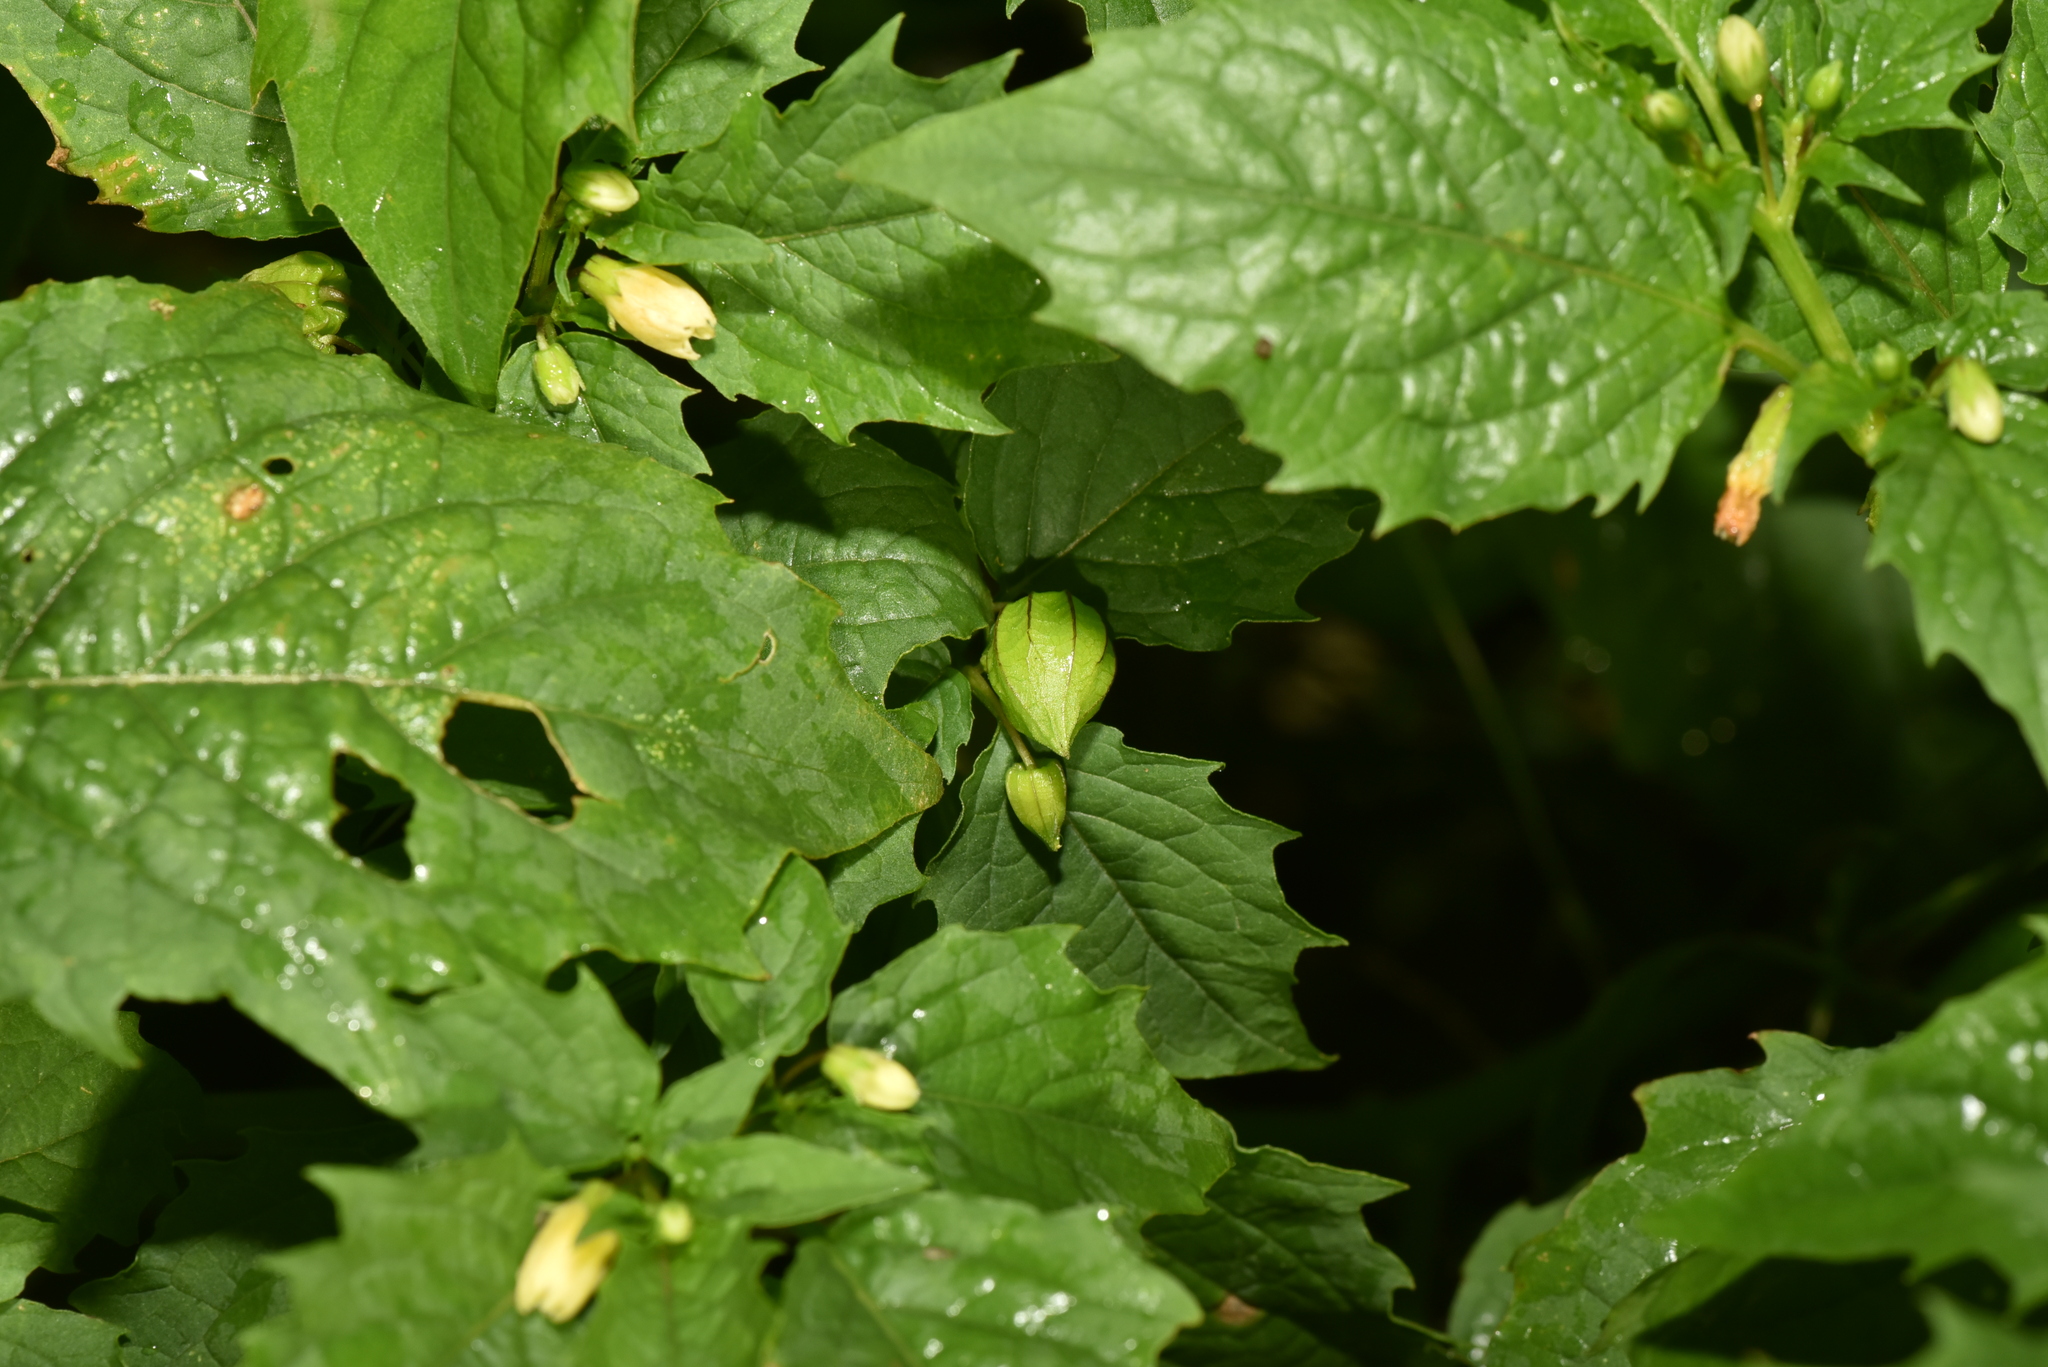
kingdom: Plantae
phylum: Tracheophyta
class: Magnoliopsida
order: Solanales
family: Solanaceae
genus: Physalis
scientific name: Physalis angulata
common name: Angular winter-cherry
